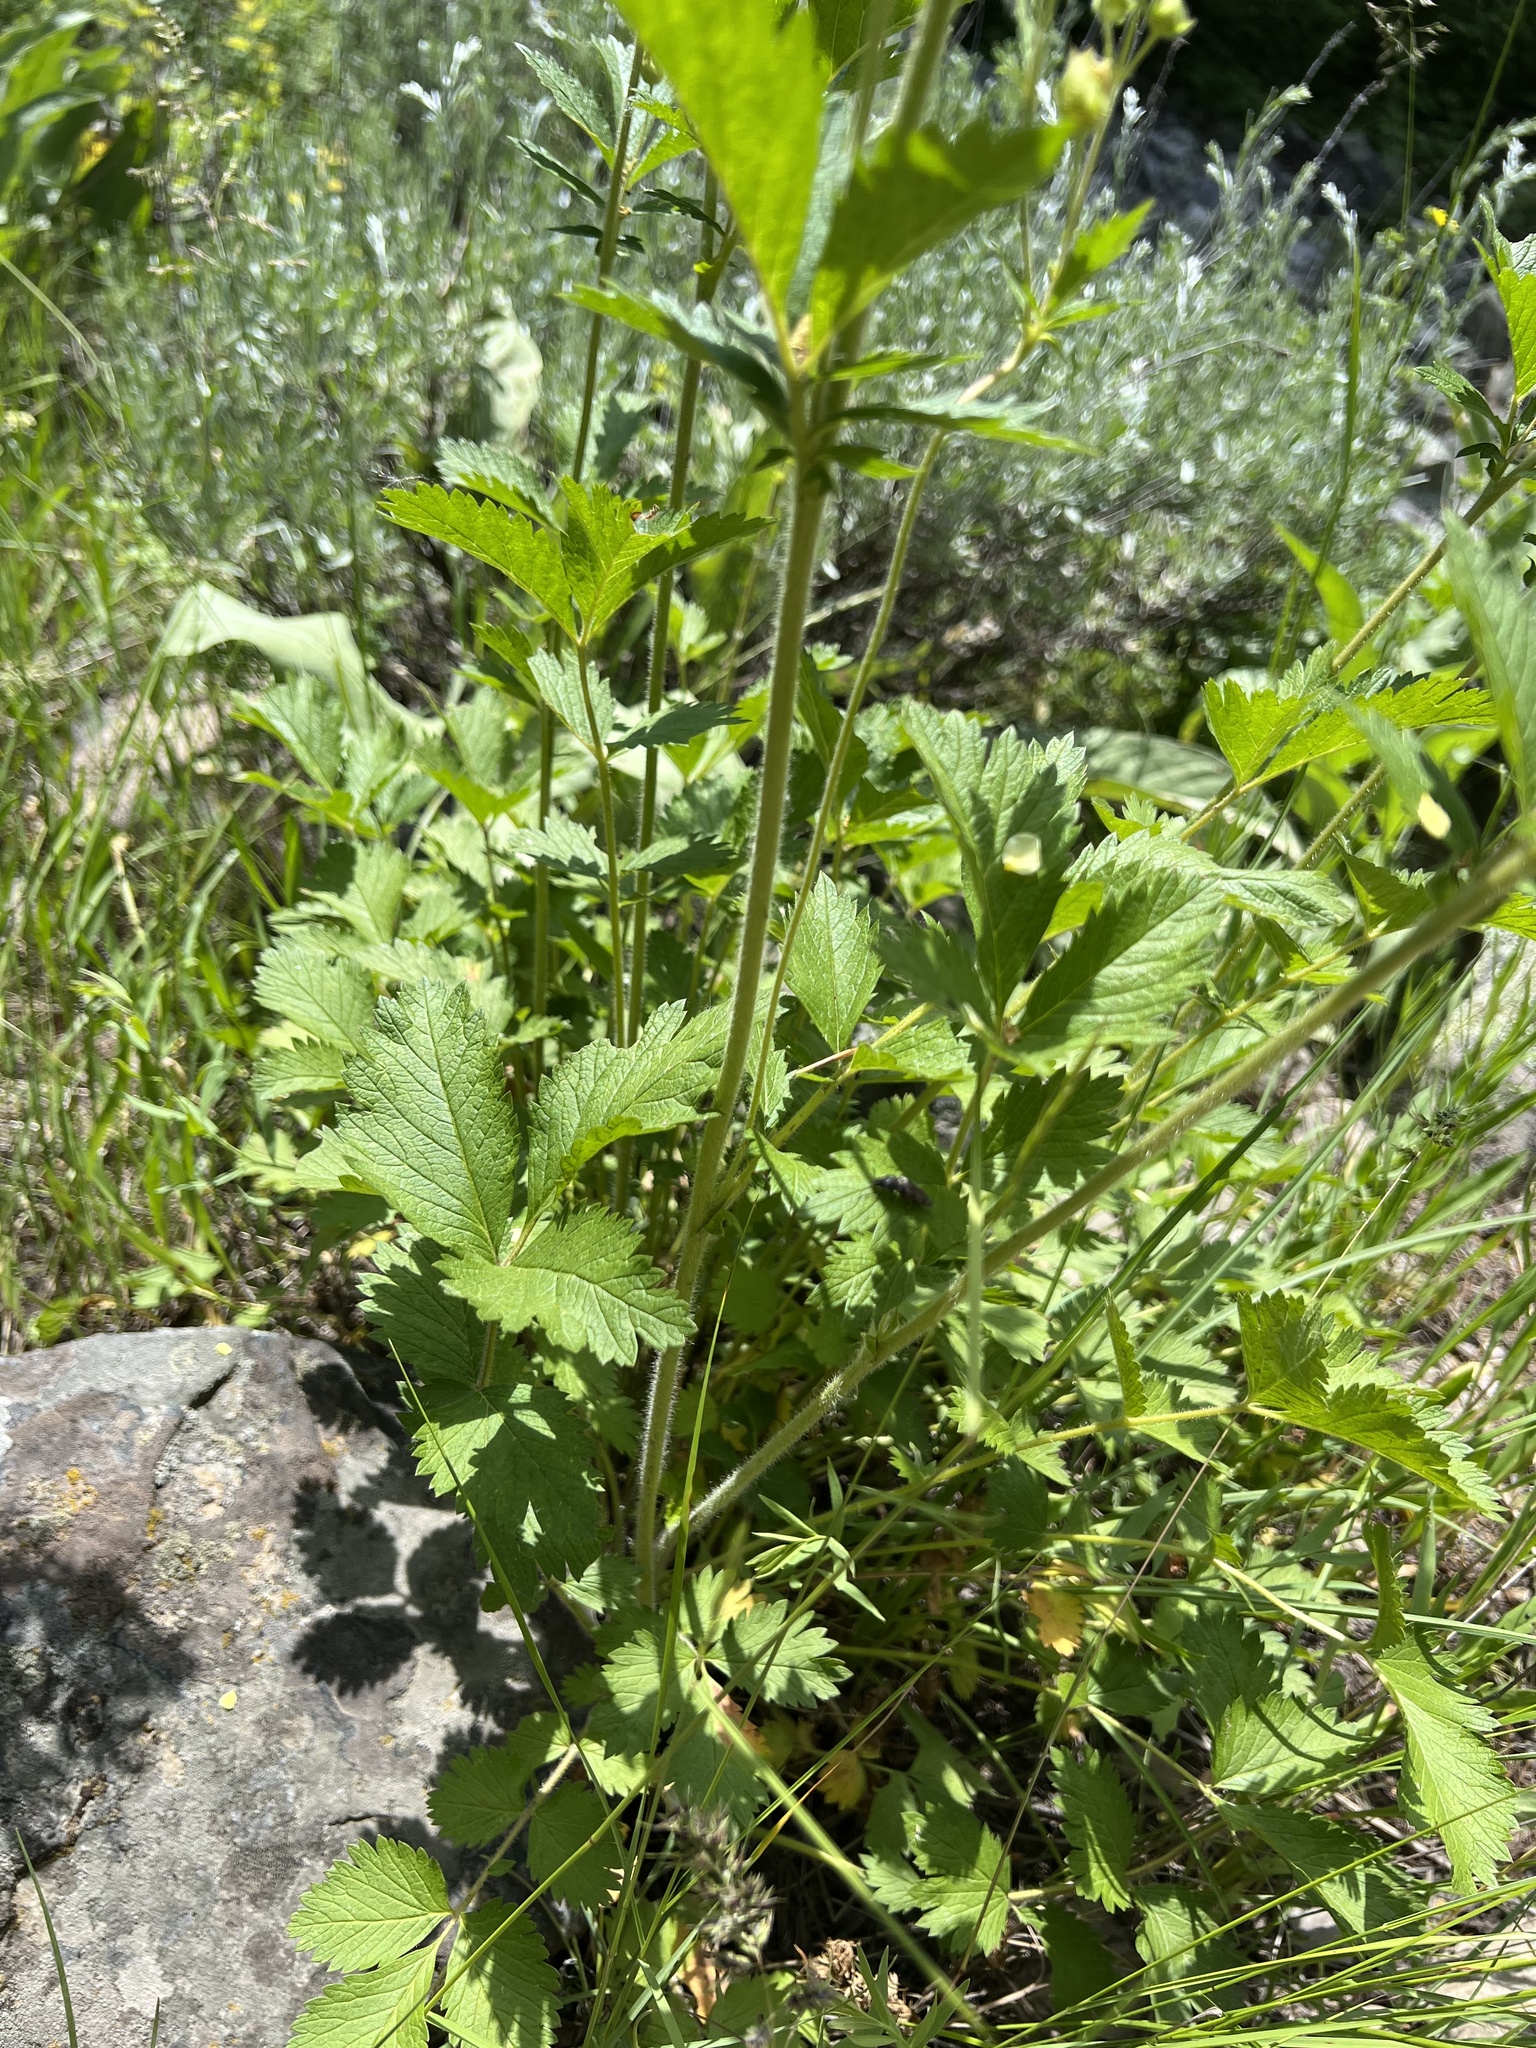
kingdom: Plantae
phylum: Tracheophyta
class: Magnoliopsida
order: Rosales
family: Rosaceae
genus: Drymocallis
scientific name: Drymocallis arguta
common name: Tall cinquefoil
